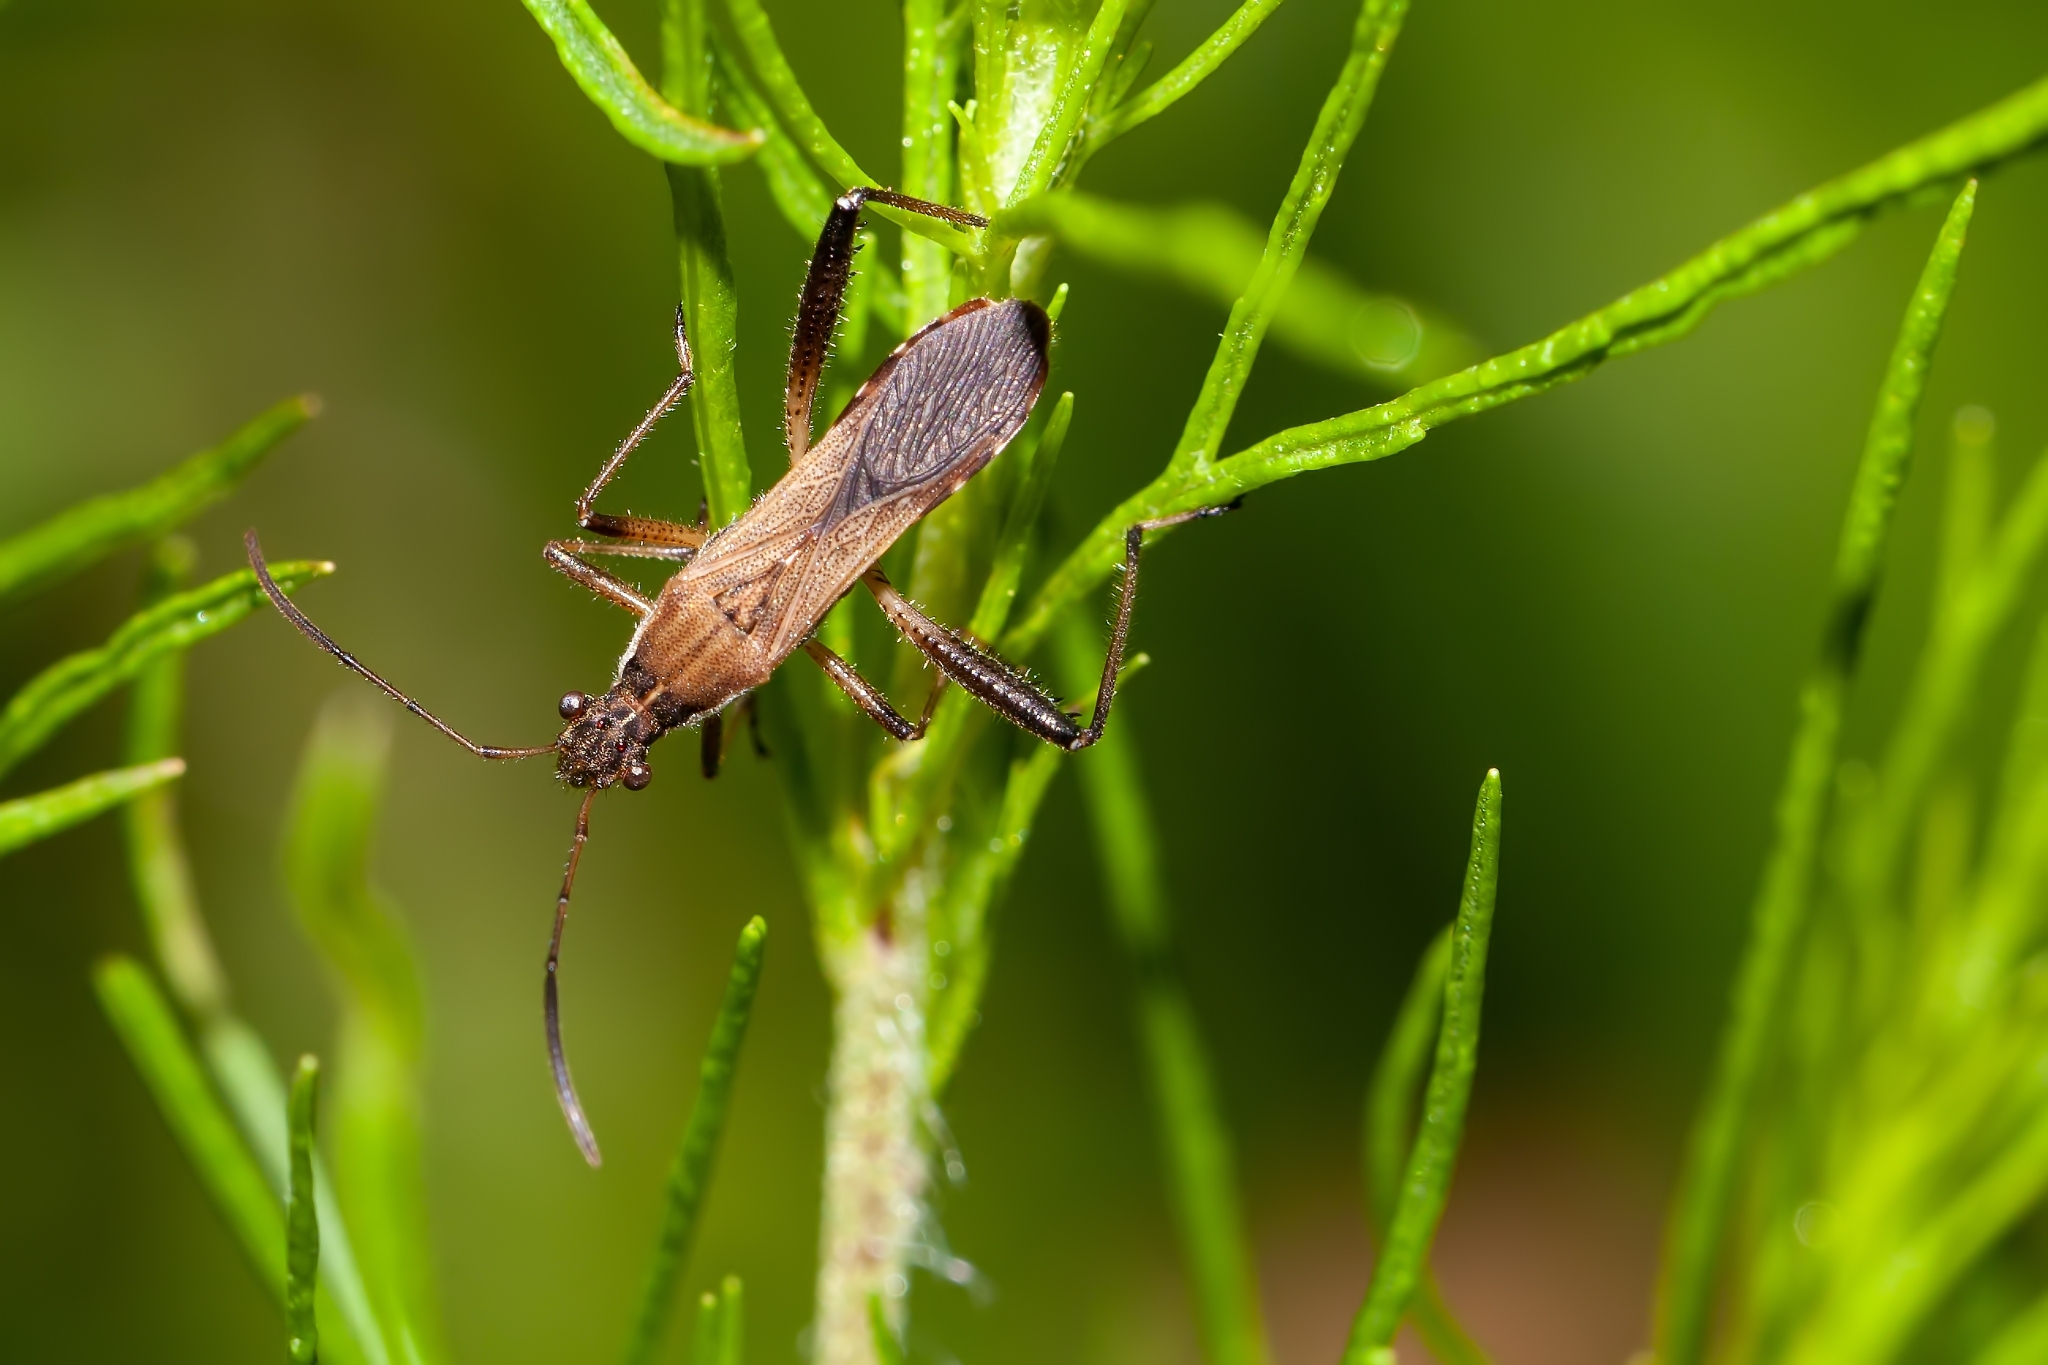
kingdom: Animalia
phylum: Arthropoda
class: Insecta
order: Hemiptera
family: Alydidae
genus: Alydus
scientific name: Alydus pilosulus
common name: Broad-headed bug
